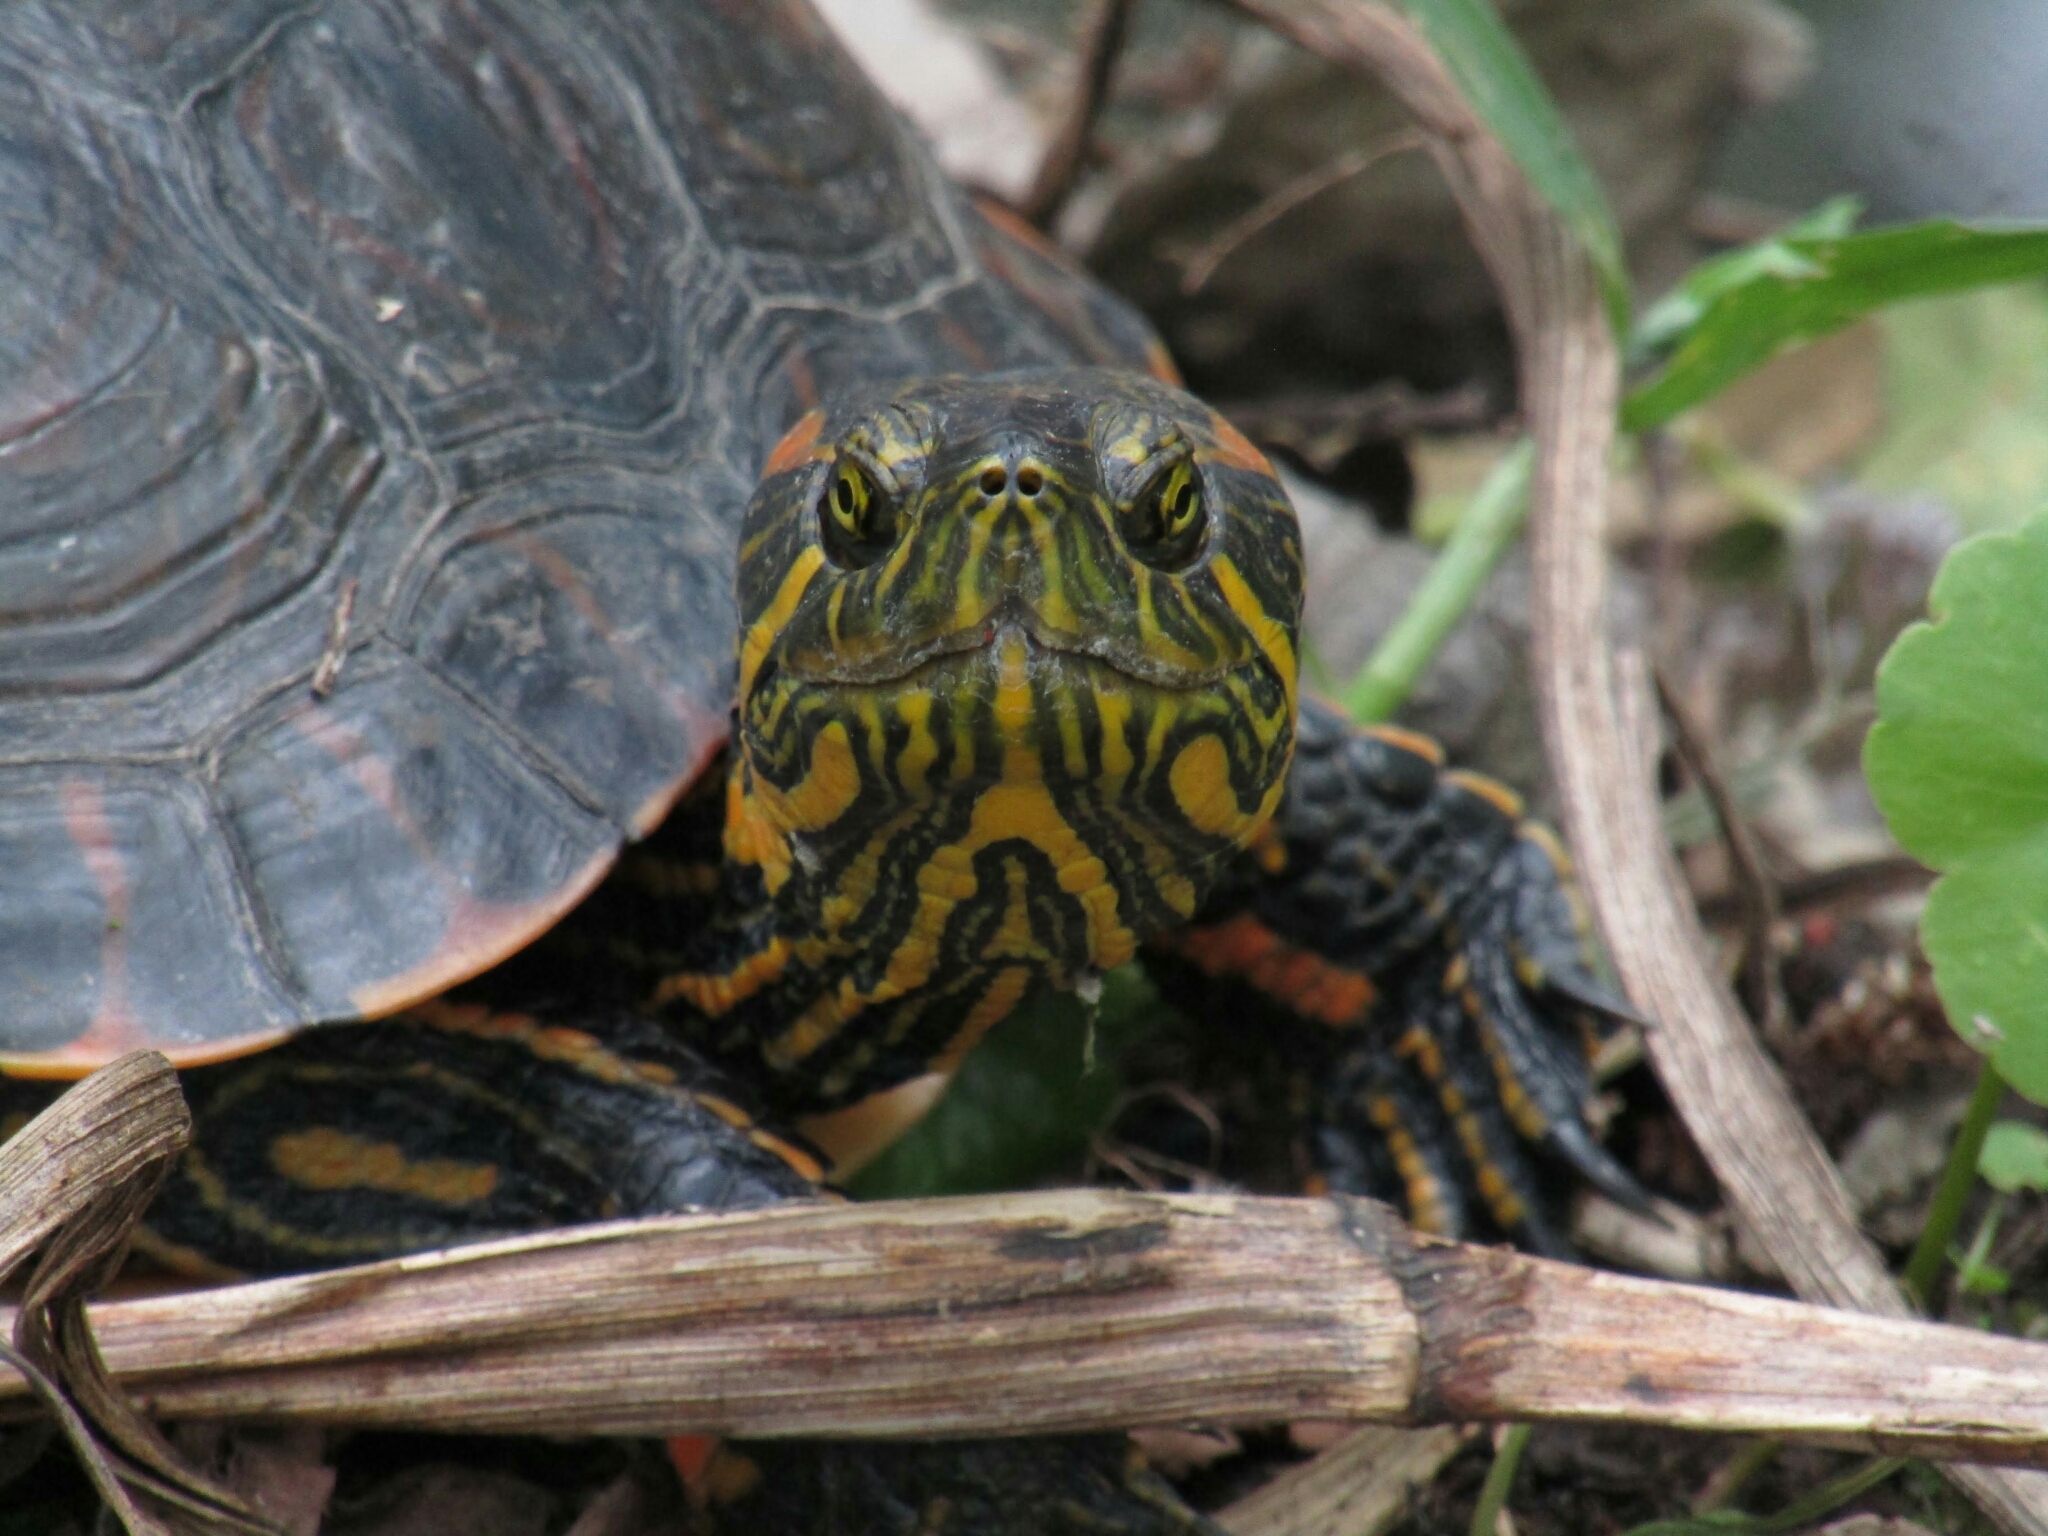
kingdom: Animalia
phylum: Chordata
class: Testudines
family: Emydidae
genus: Trachemys
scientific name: Trachemys dorbigni
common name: Black-bellied slider
